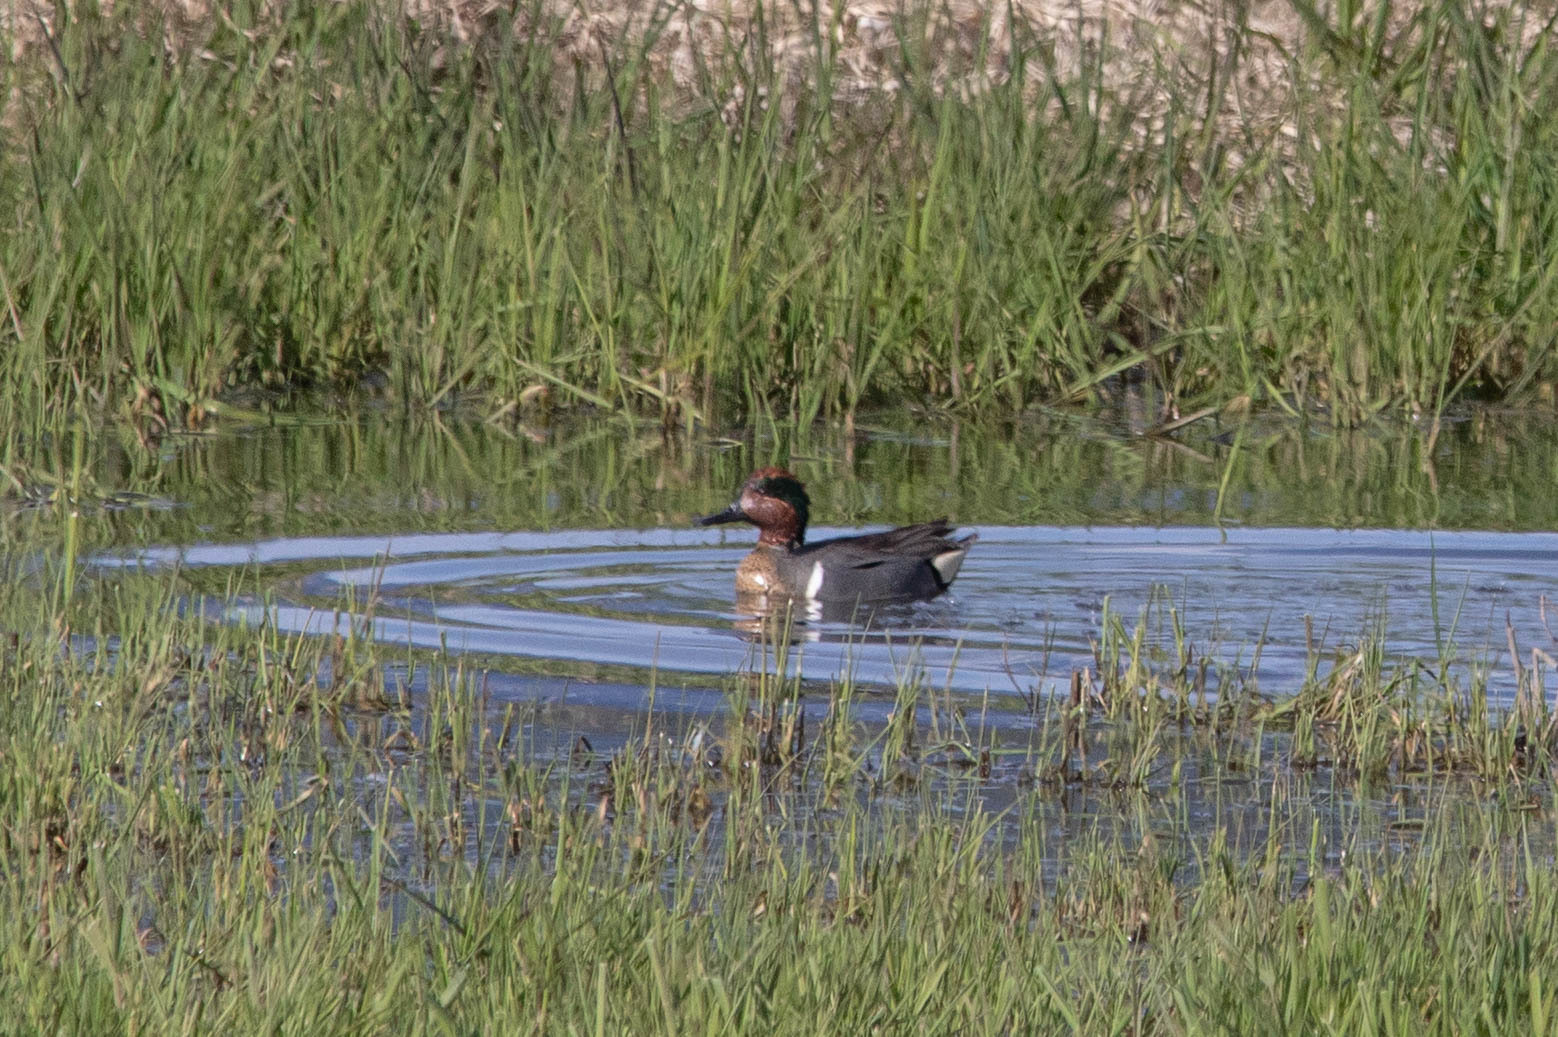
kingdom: Animalia
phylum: Chordata
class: Aves
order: Anseriformes
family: Anatidae
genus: Anas
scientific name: Anas carolinensis
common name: Green-winged teal
